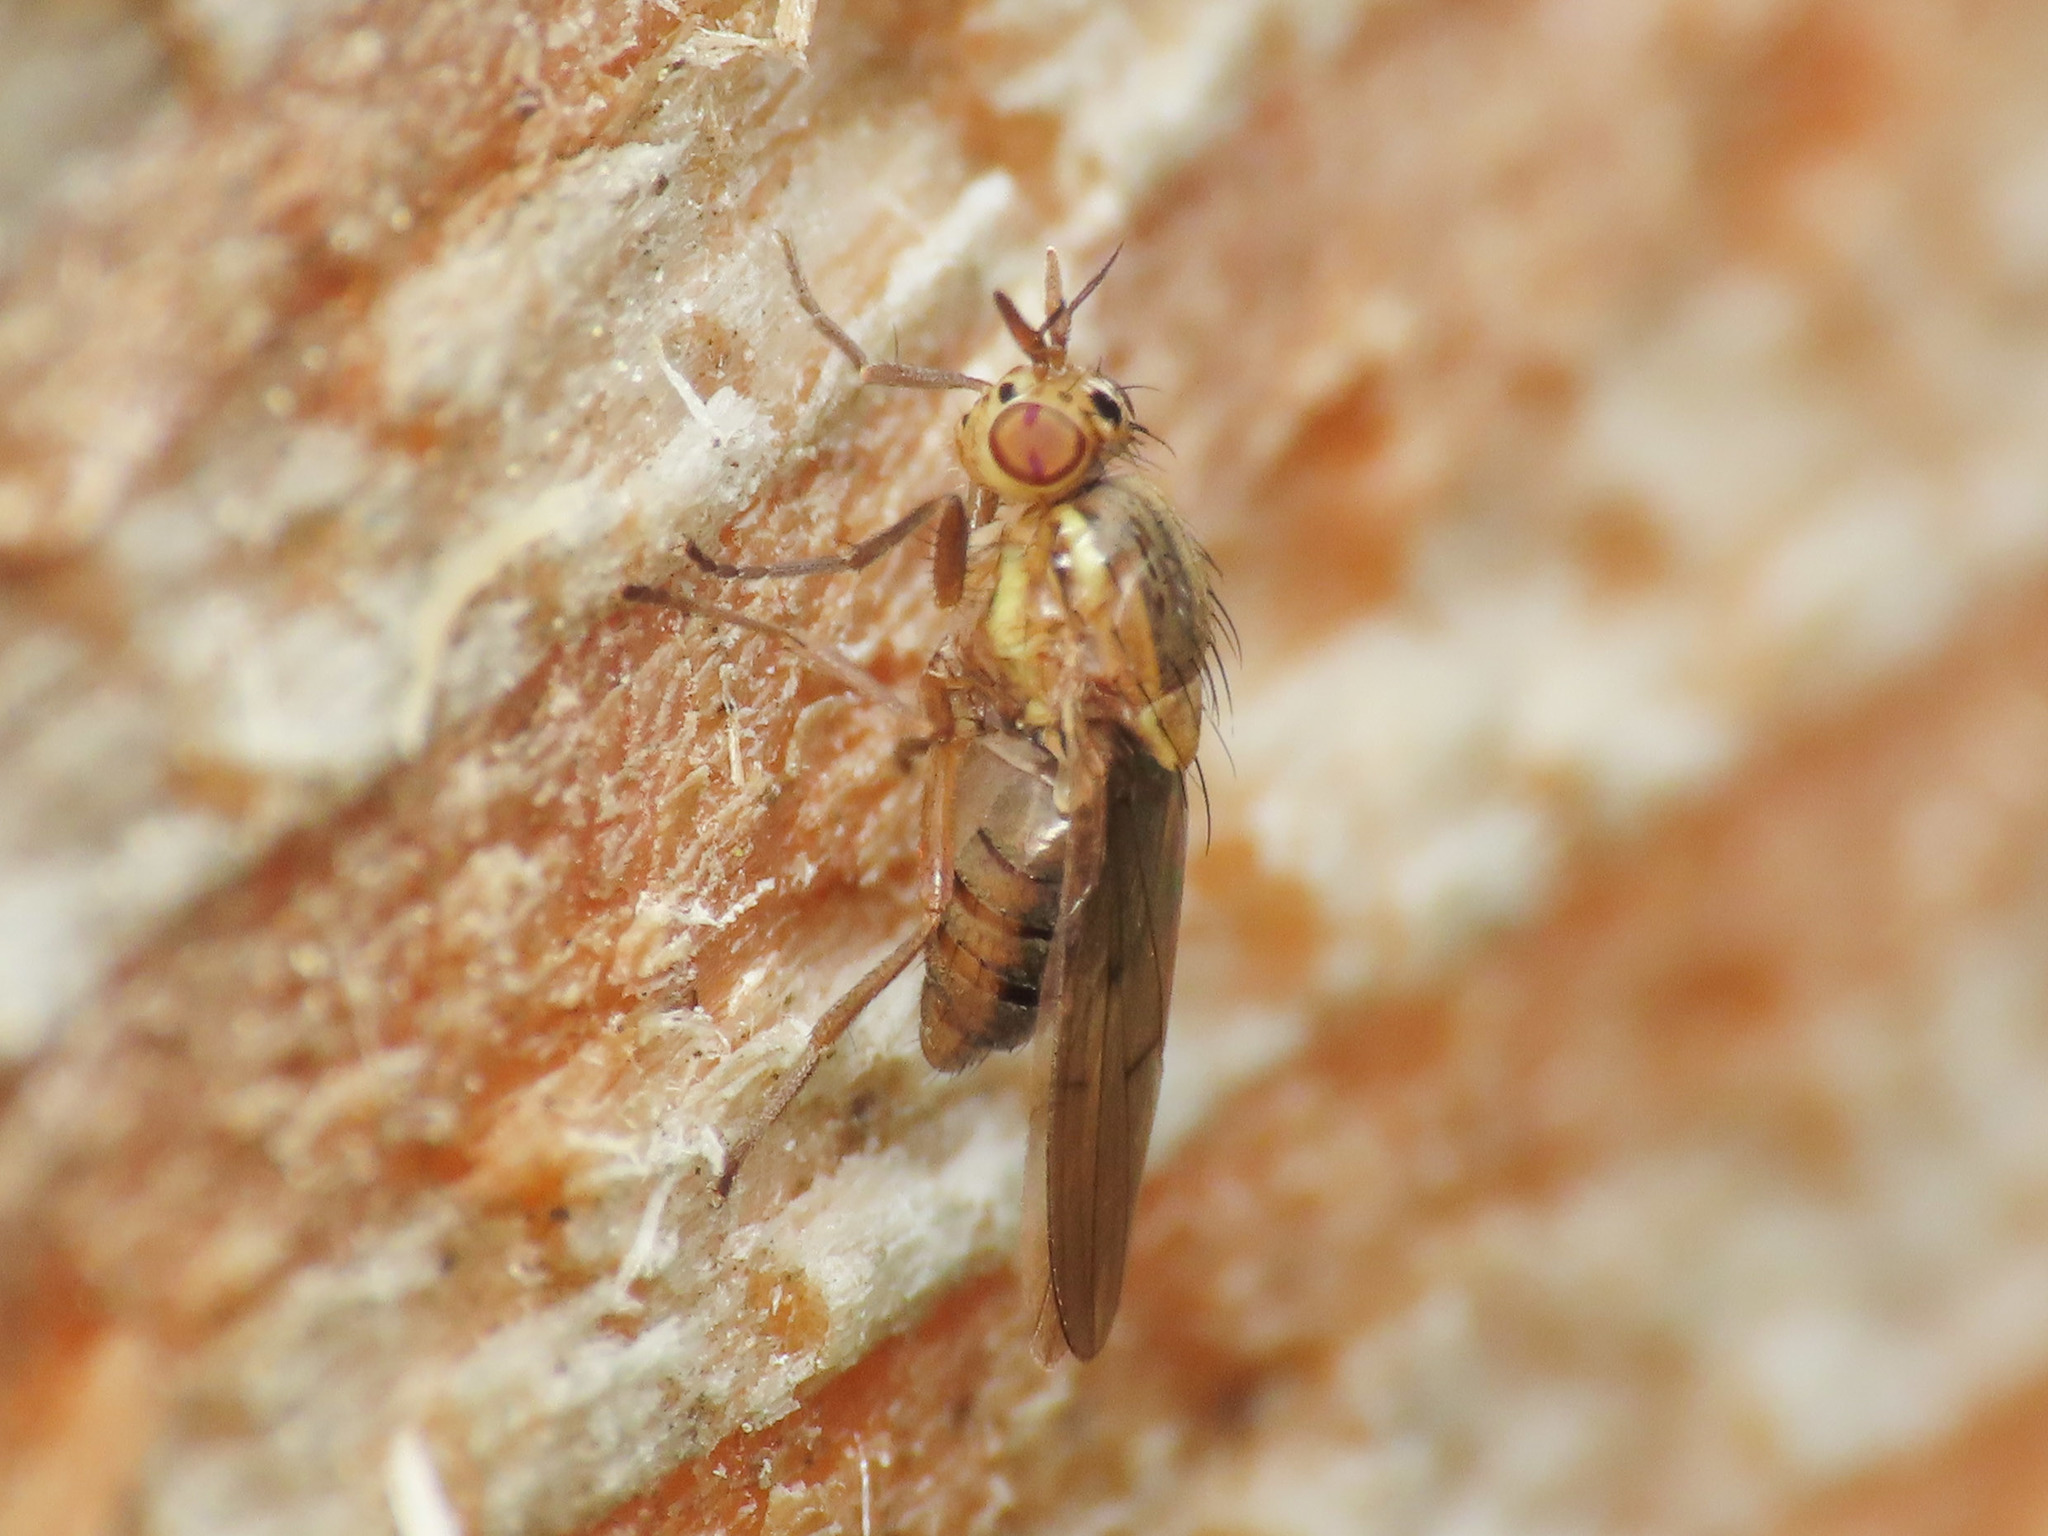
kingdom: Animalia
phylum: Arthropoda
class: Insecta
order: Diptera
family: Lauxaniidae
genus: Pachycerina
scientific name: Pachycerina seticornis
